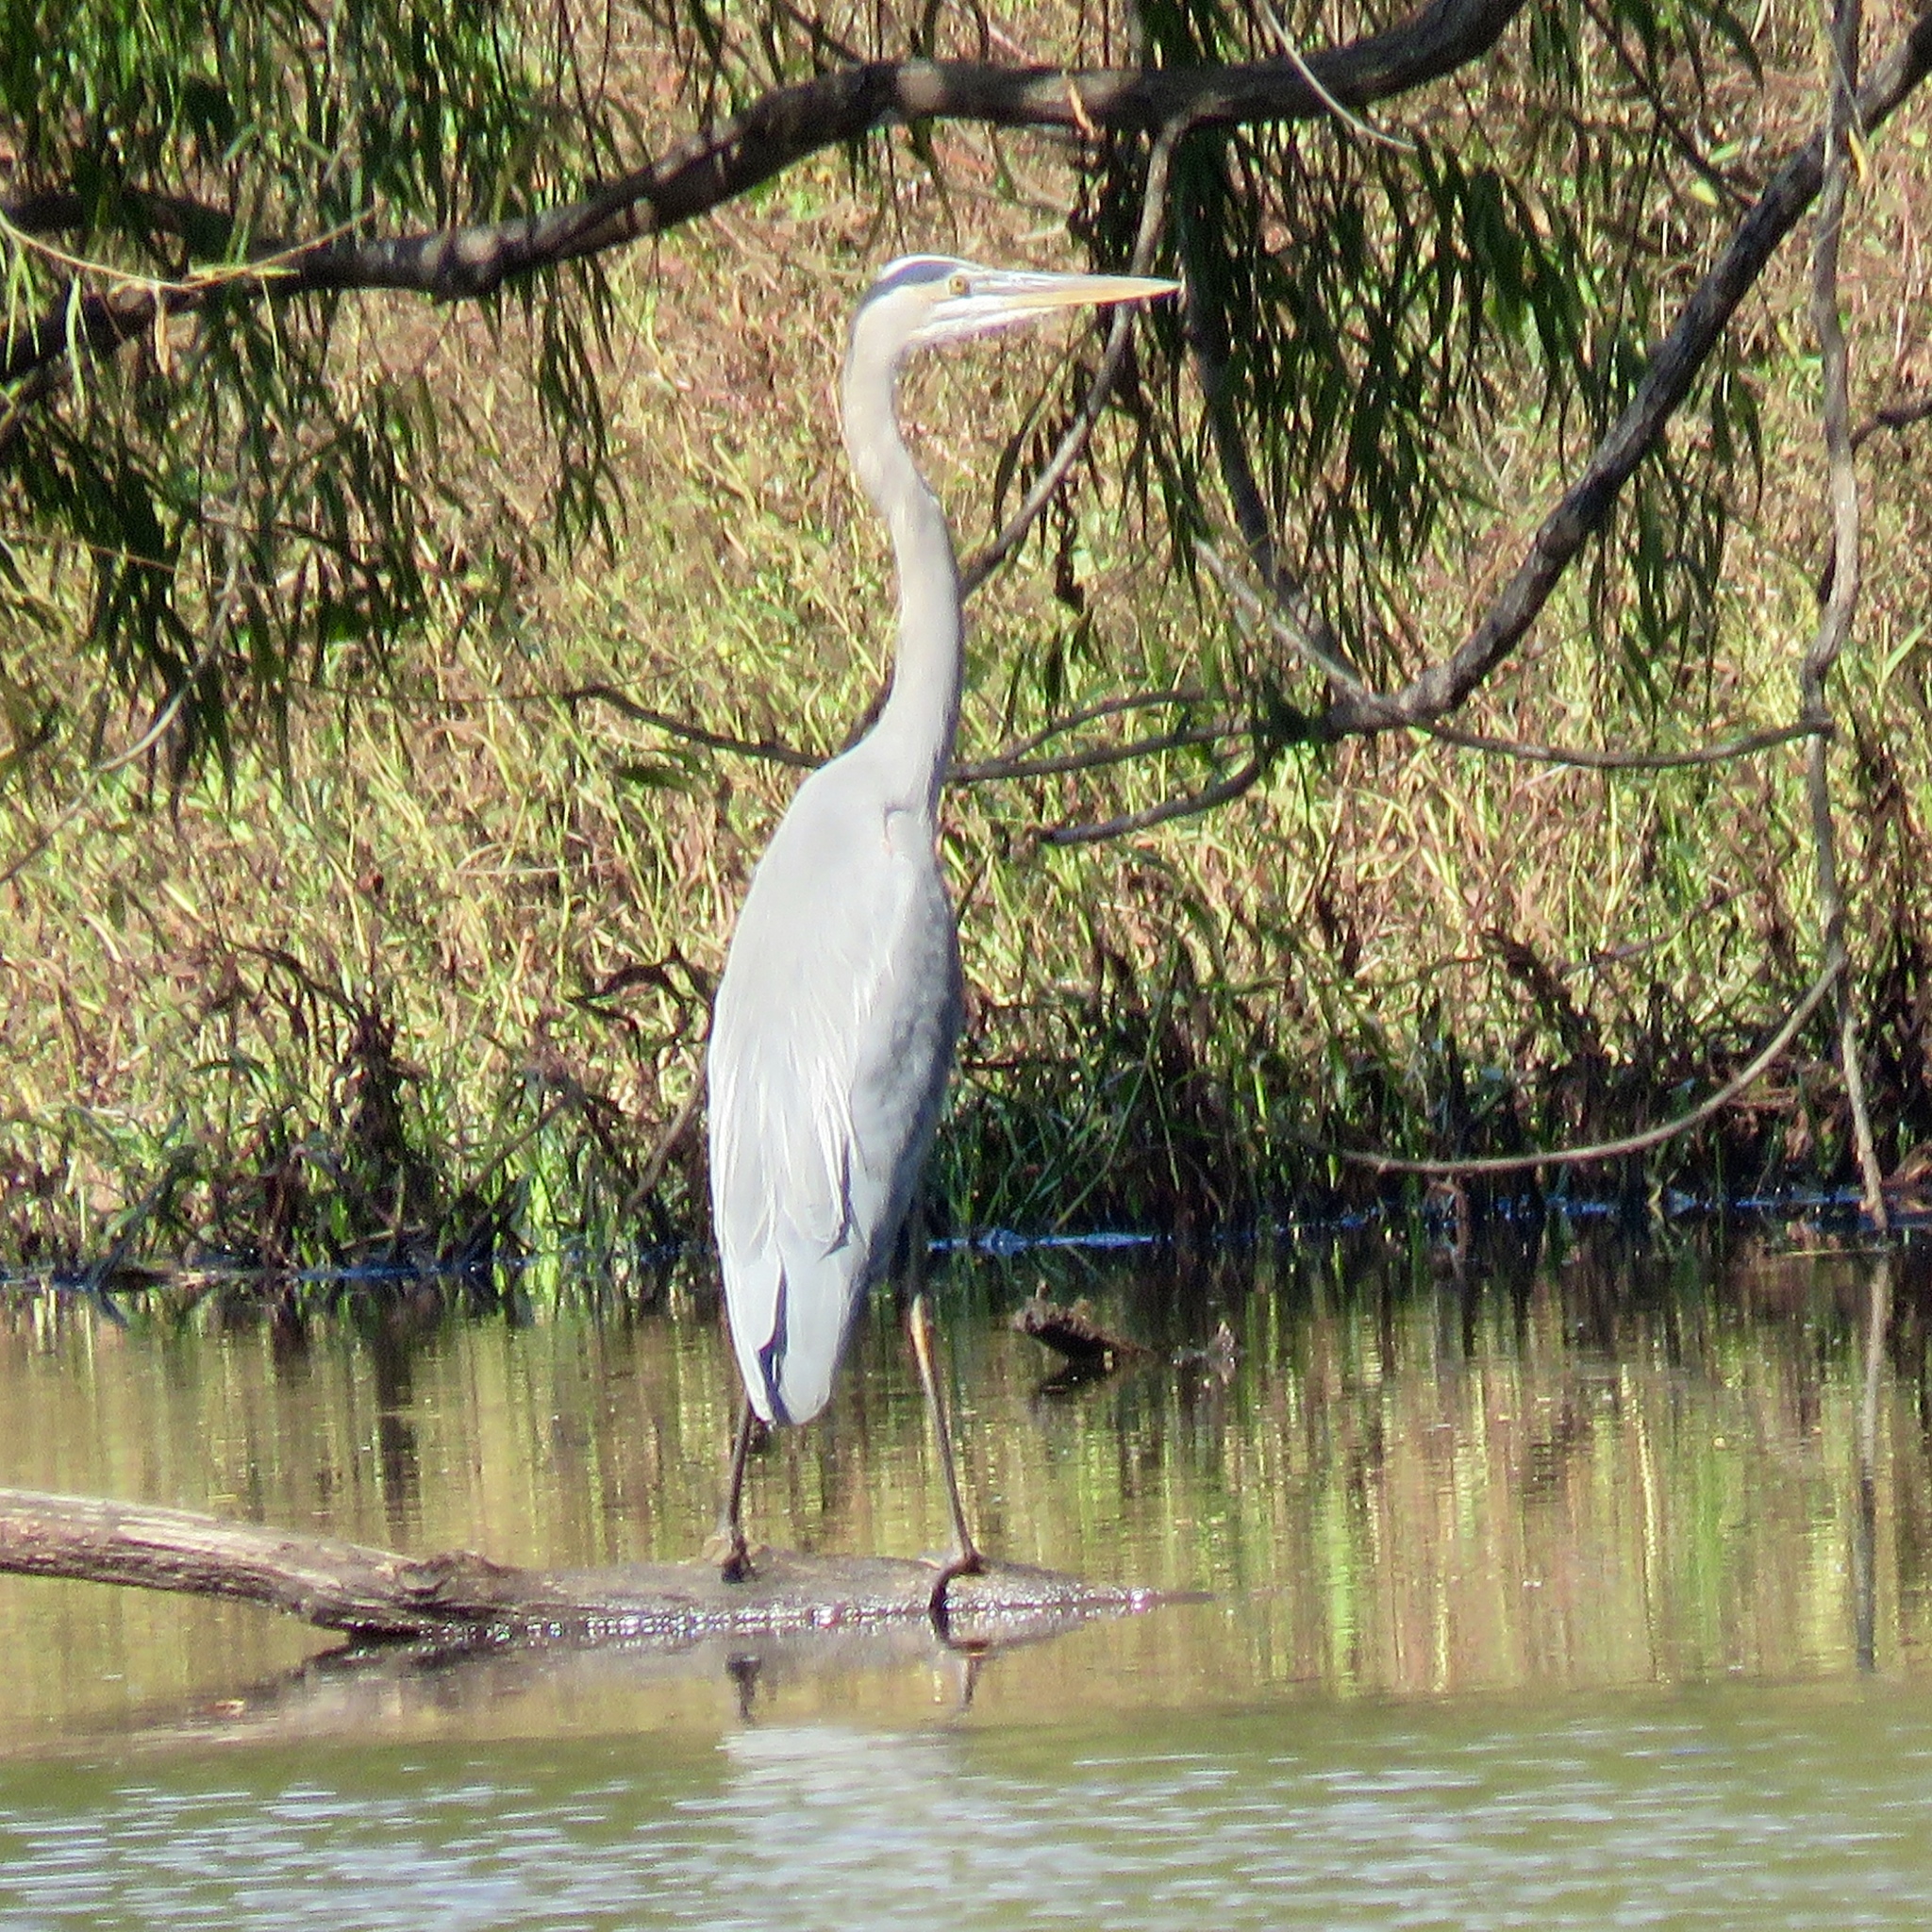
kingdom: Animalia
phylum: Chordata
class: Aves
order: Pelecaniformes
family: Ardeidae
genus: Ardea
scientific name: Ardea herodias
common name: Great blue heron
